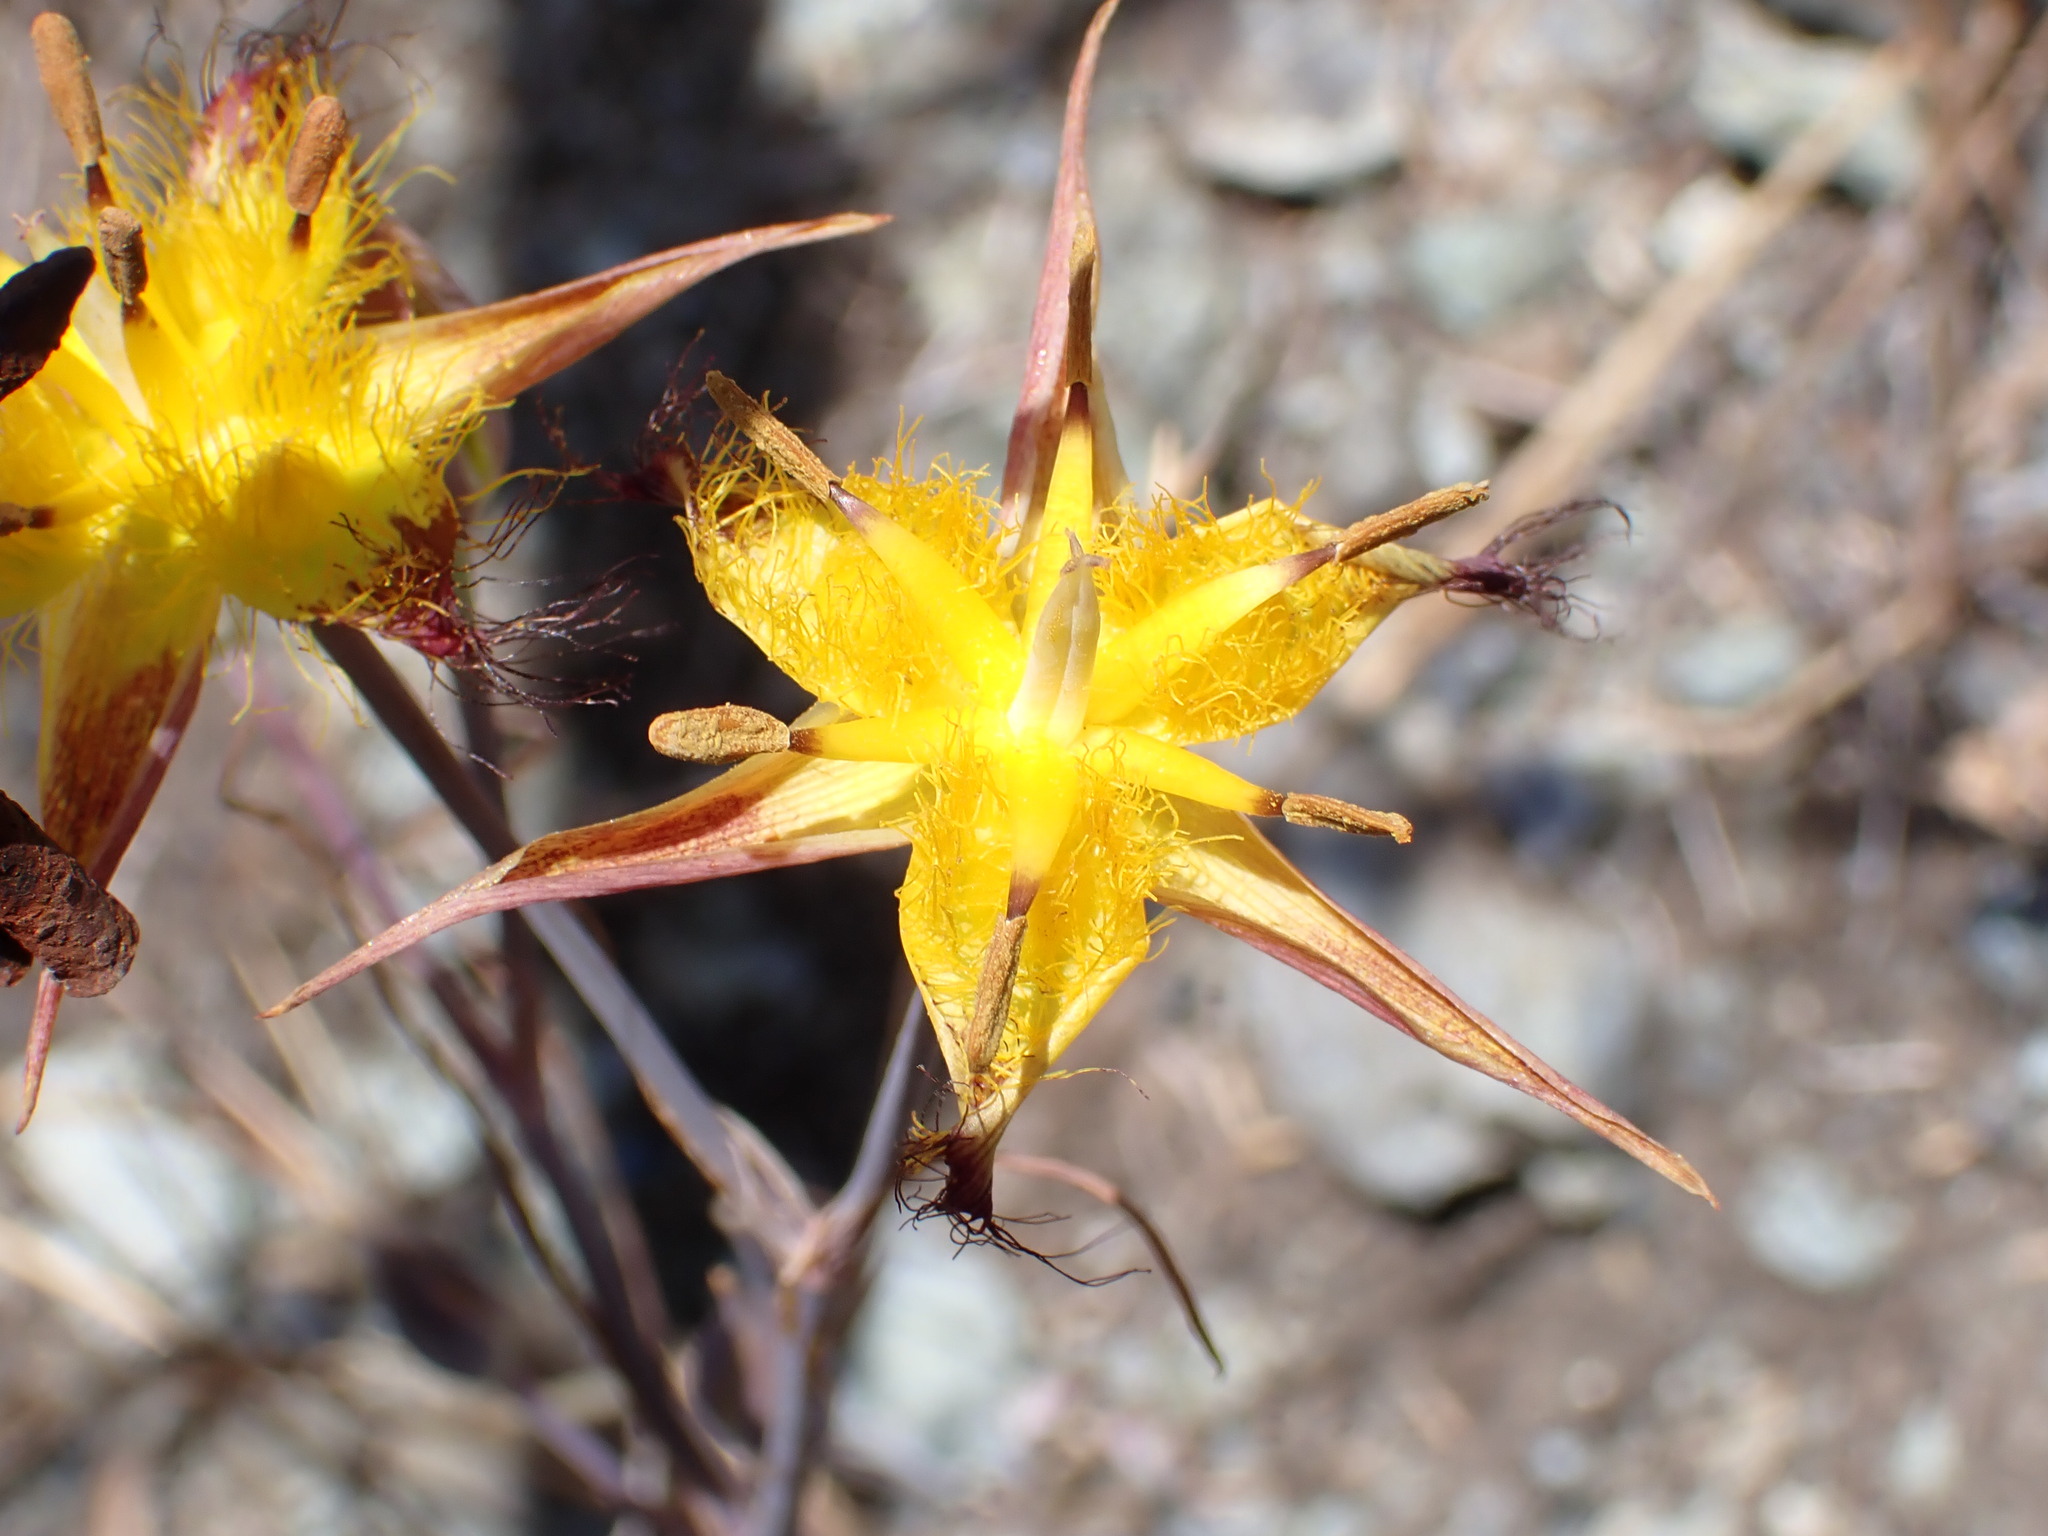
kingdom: Plantae
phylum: Tracheophyta
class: Liliopsida
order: Liliales
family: Liliaceae
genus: Calochortus
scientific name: Calochortus obispoensis
